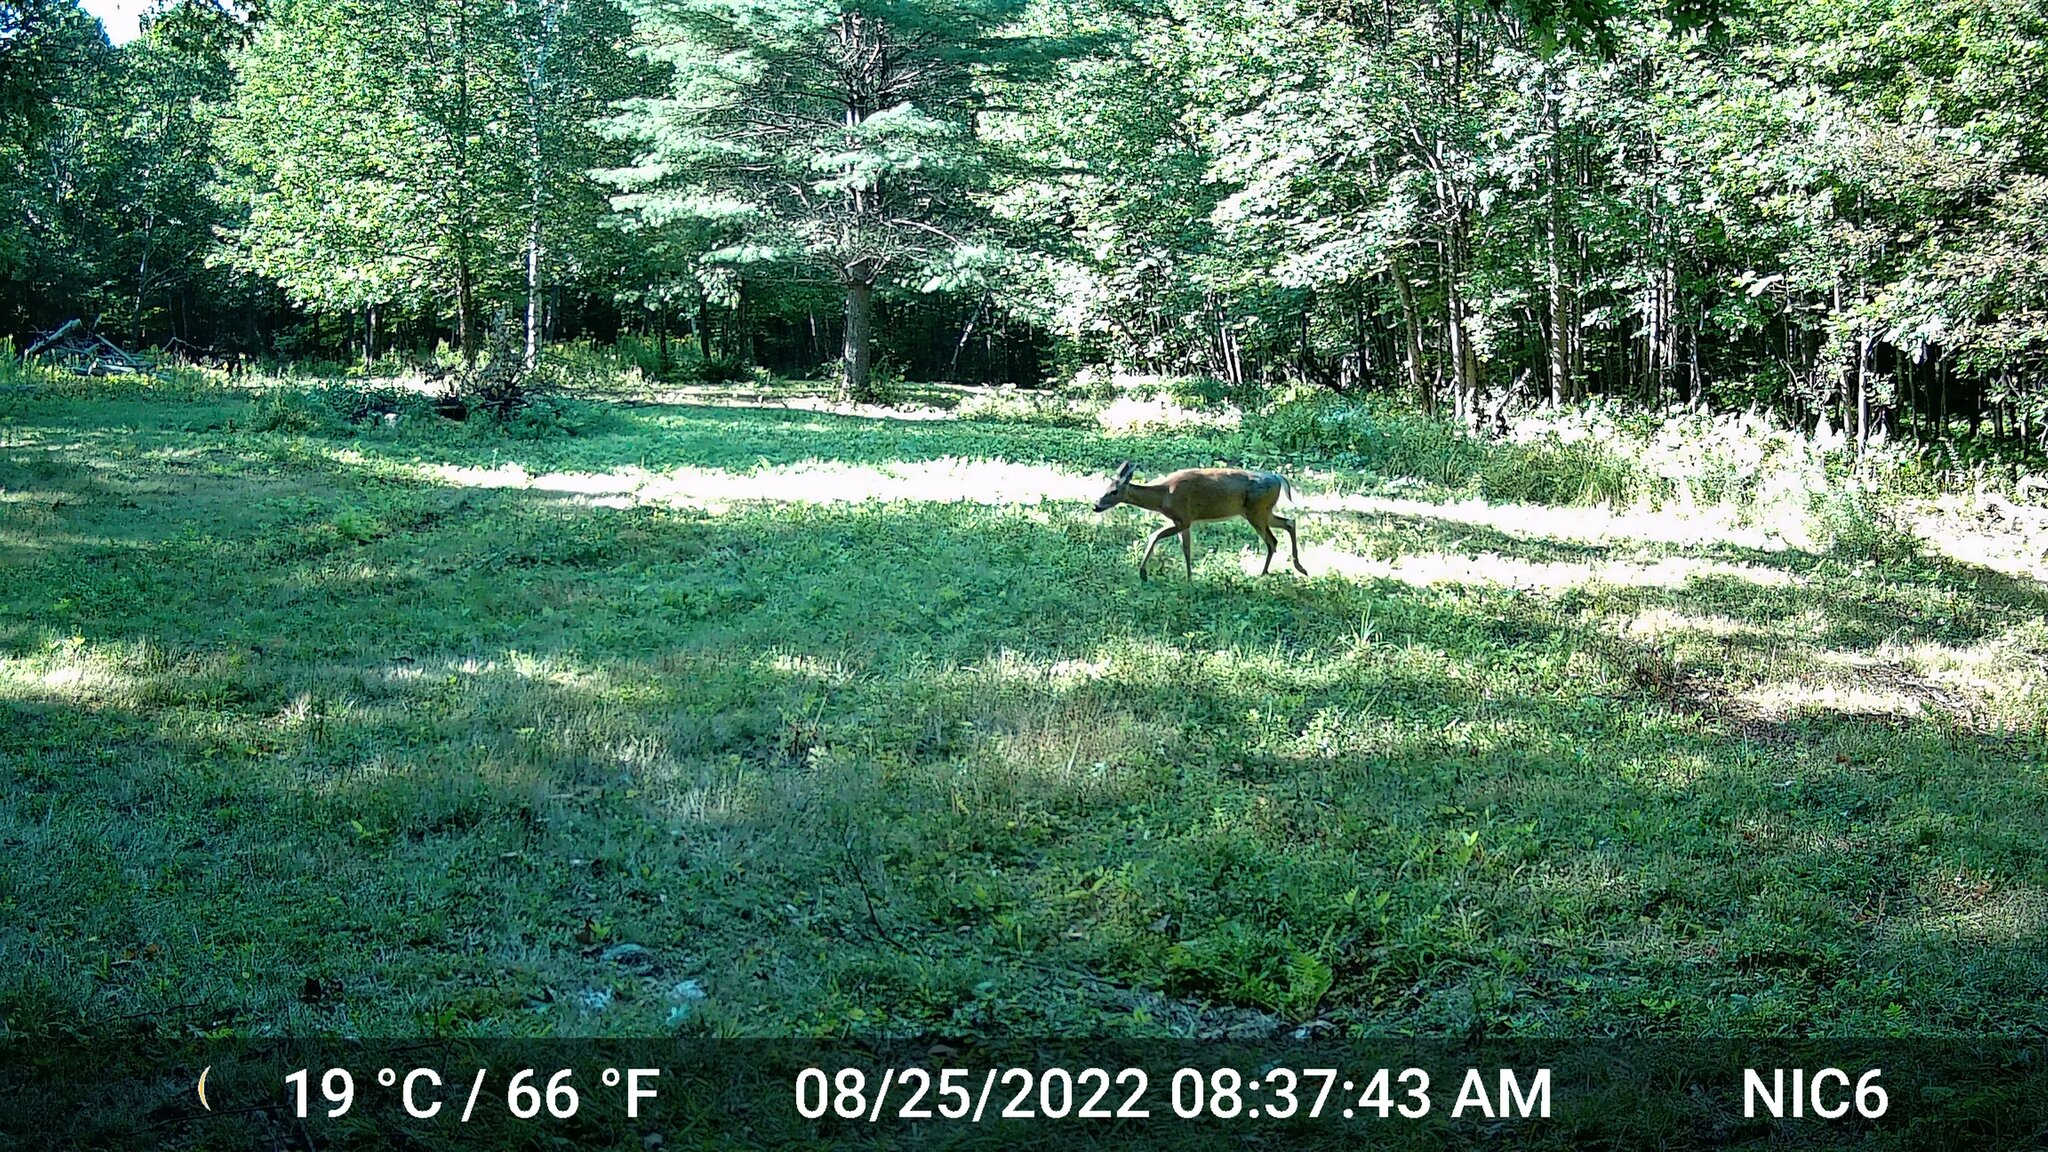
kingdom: Animalia
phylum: Chordata
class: Mammalia
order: Artiodactyla
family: Cervidae
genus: Odocoileus
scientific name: Odocoileus virginianus
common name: White-tailed deer
